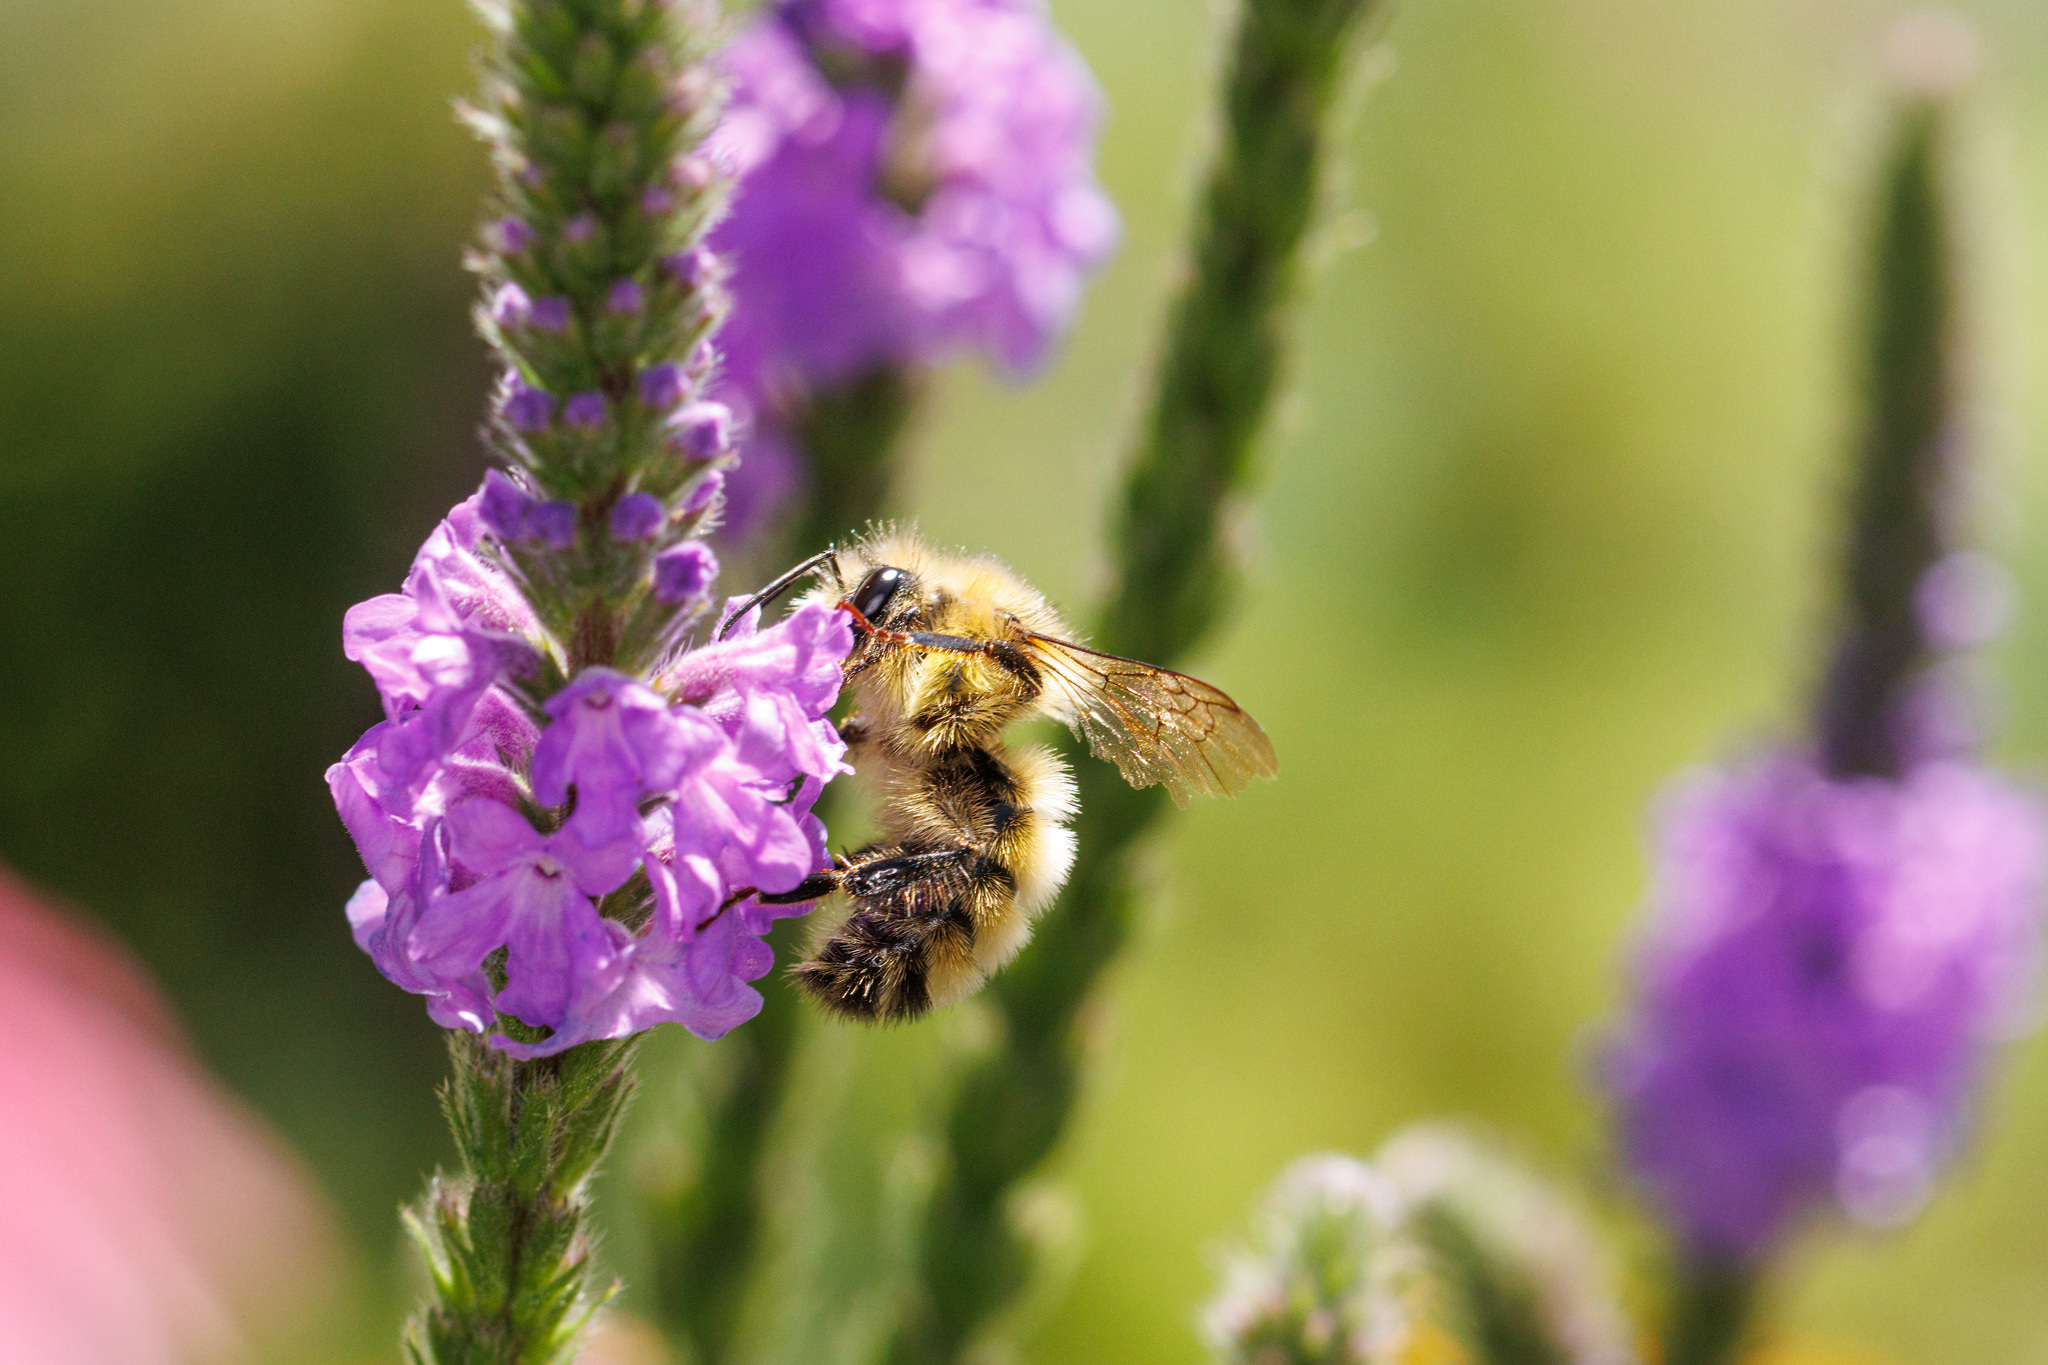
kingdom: Animalia
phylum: Arthropoda
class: Insecta
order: Hymenoptera
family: Apidae
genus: Bombus
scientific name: Bombus flavifrons
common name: Yellow head bumble bee
